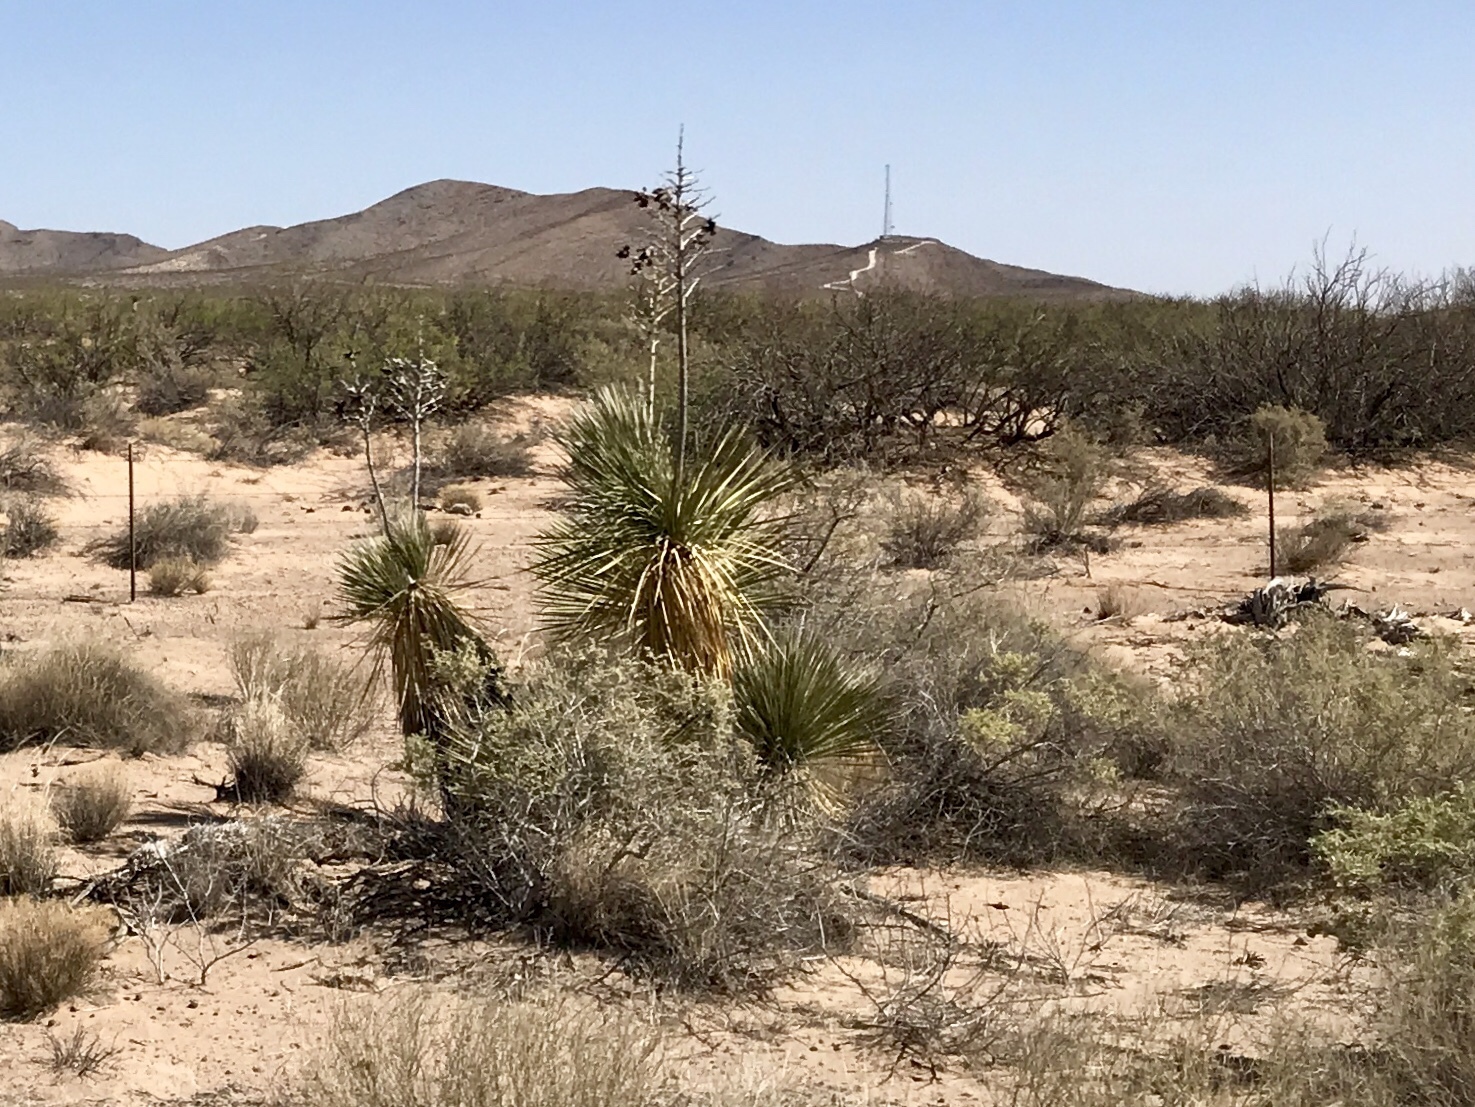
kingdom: Plantae
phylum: Tracheophyta
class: Liliopsida
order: Asparagales
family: Asparagaceae
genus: Yucca
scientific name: Yucca elata
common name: Palmella
